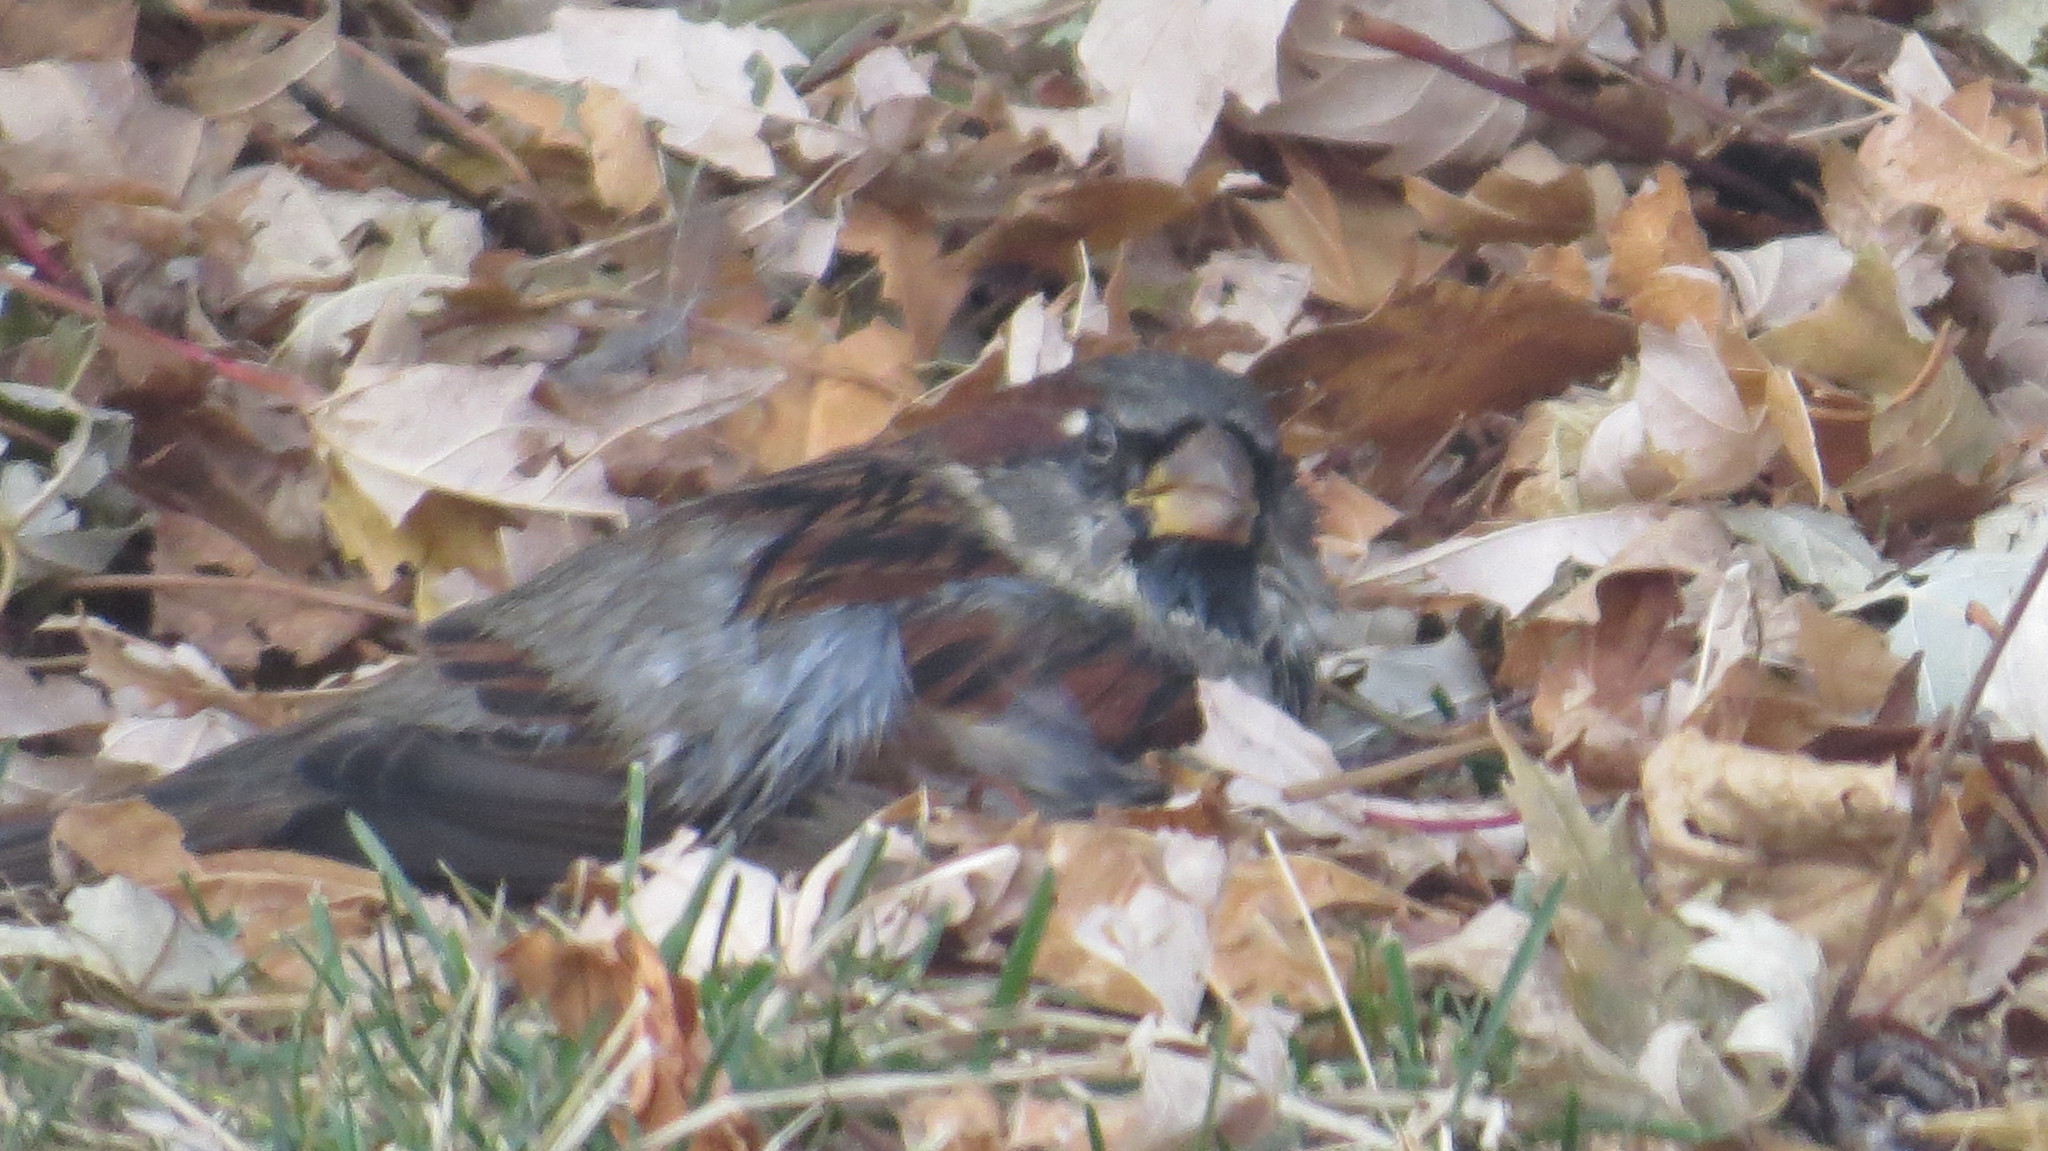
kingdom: Animalia
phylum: Chordata
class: Aves
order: Passeriformes
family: Passeridae
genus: Passer
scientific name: Passer domesticus
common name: House sparrow
